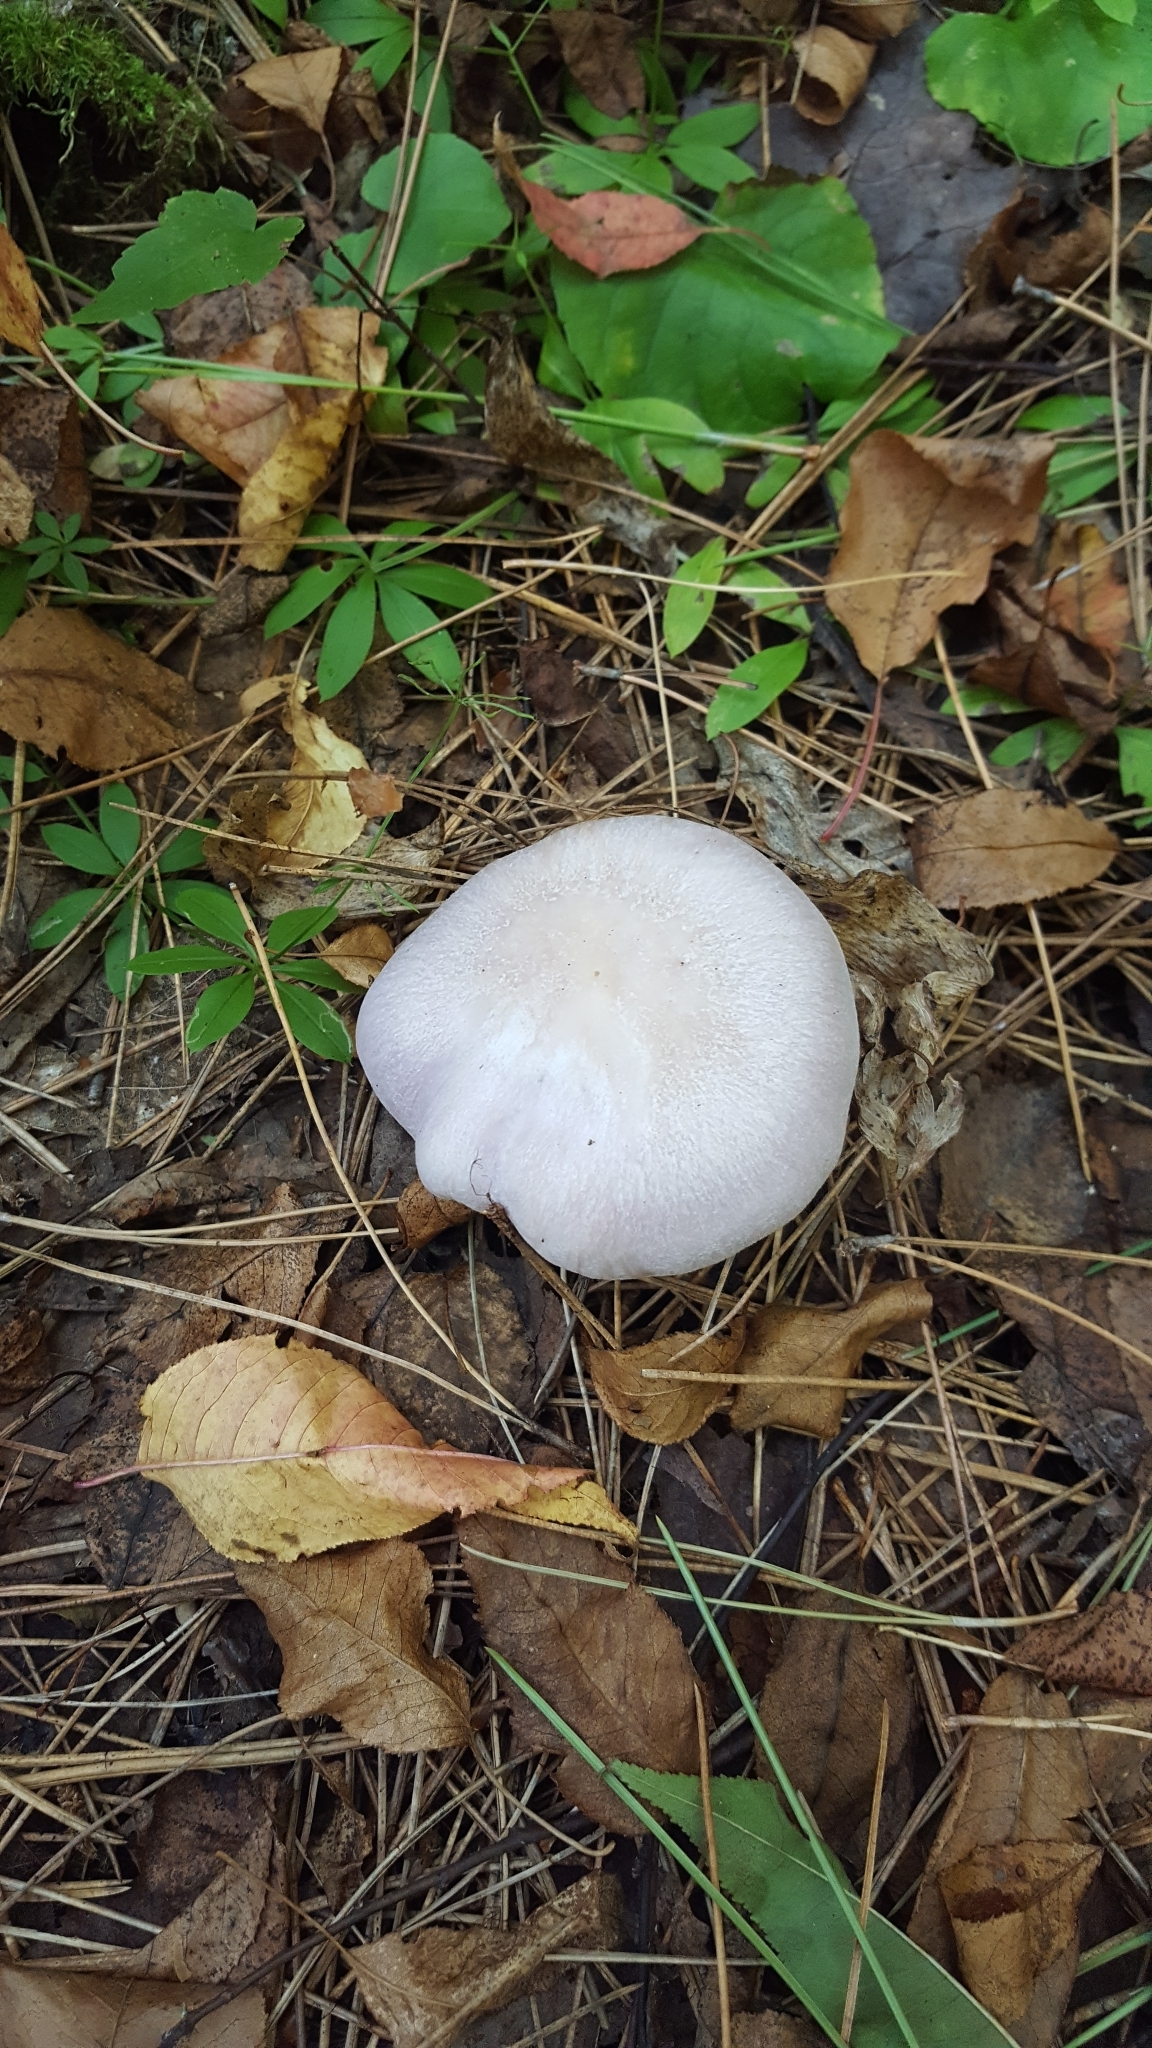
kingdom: Fungi
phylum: Basidiomycota
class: Agaricomycetes
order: Agaricales
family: Tricholomataceae
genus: Collybia
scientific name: Collybia
